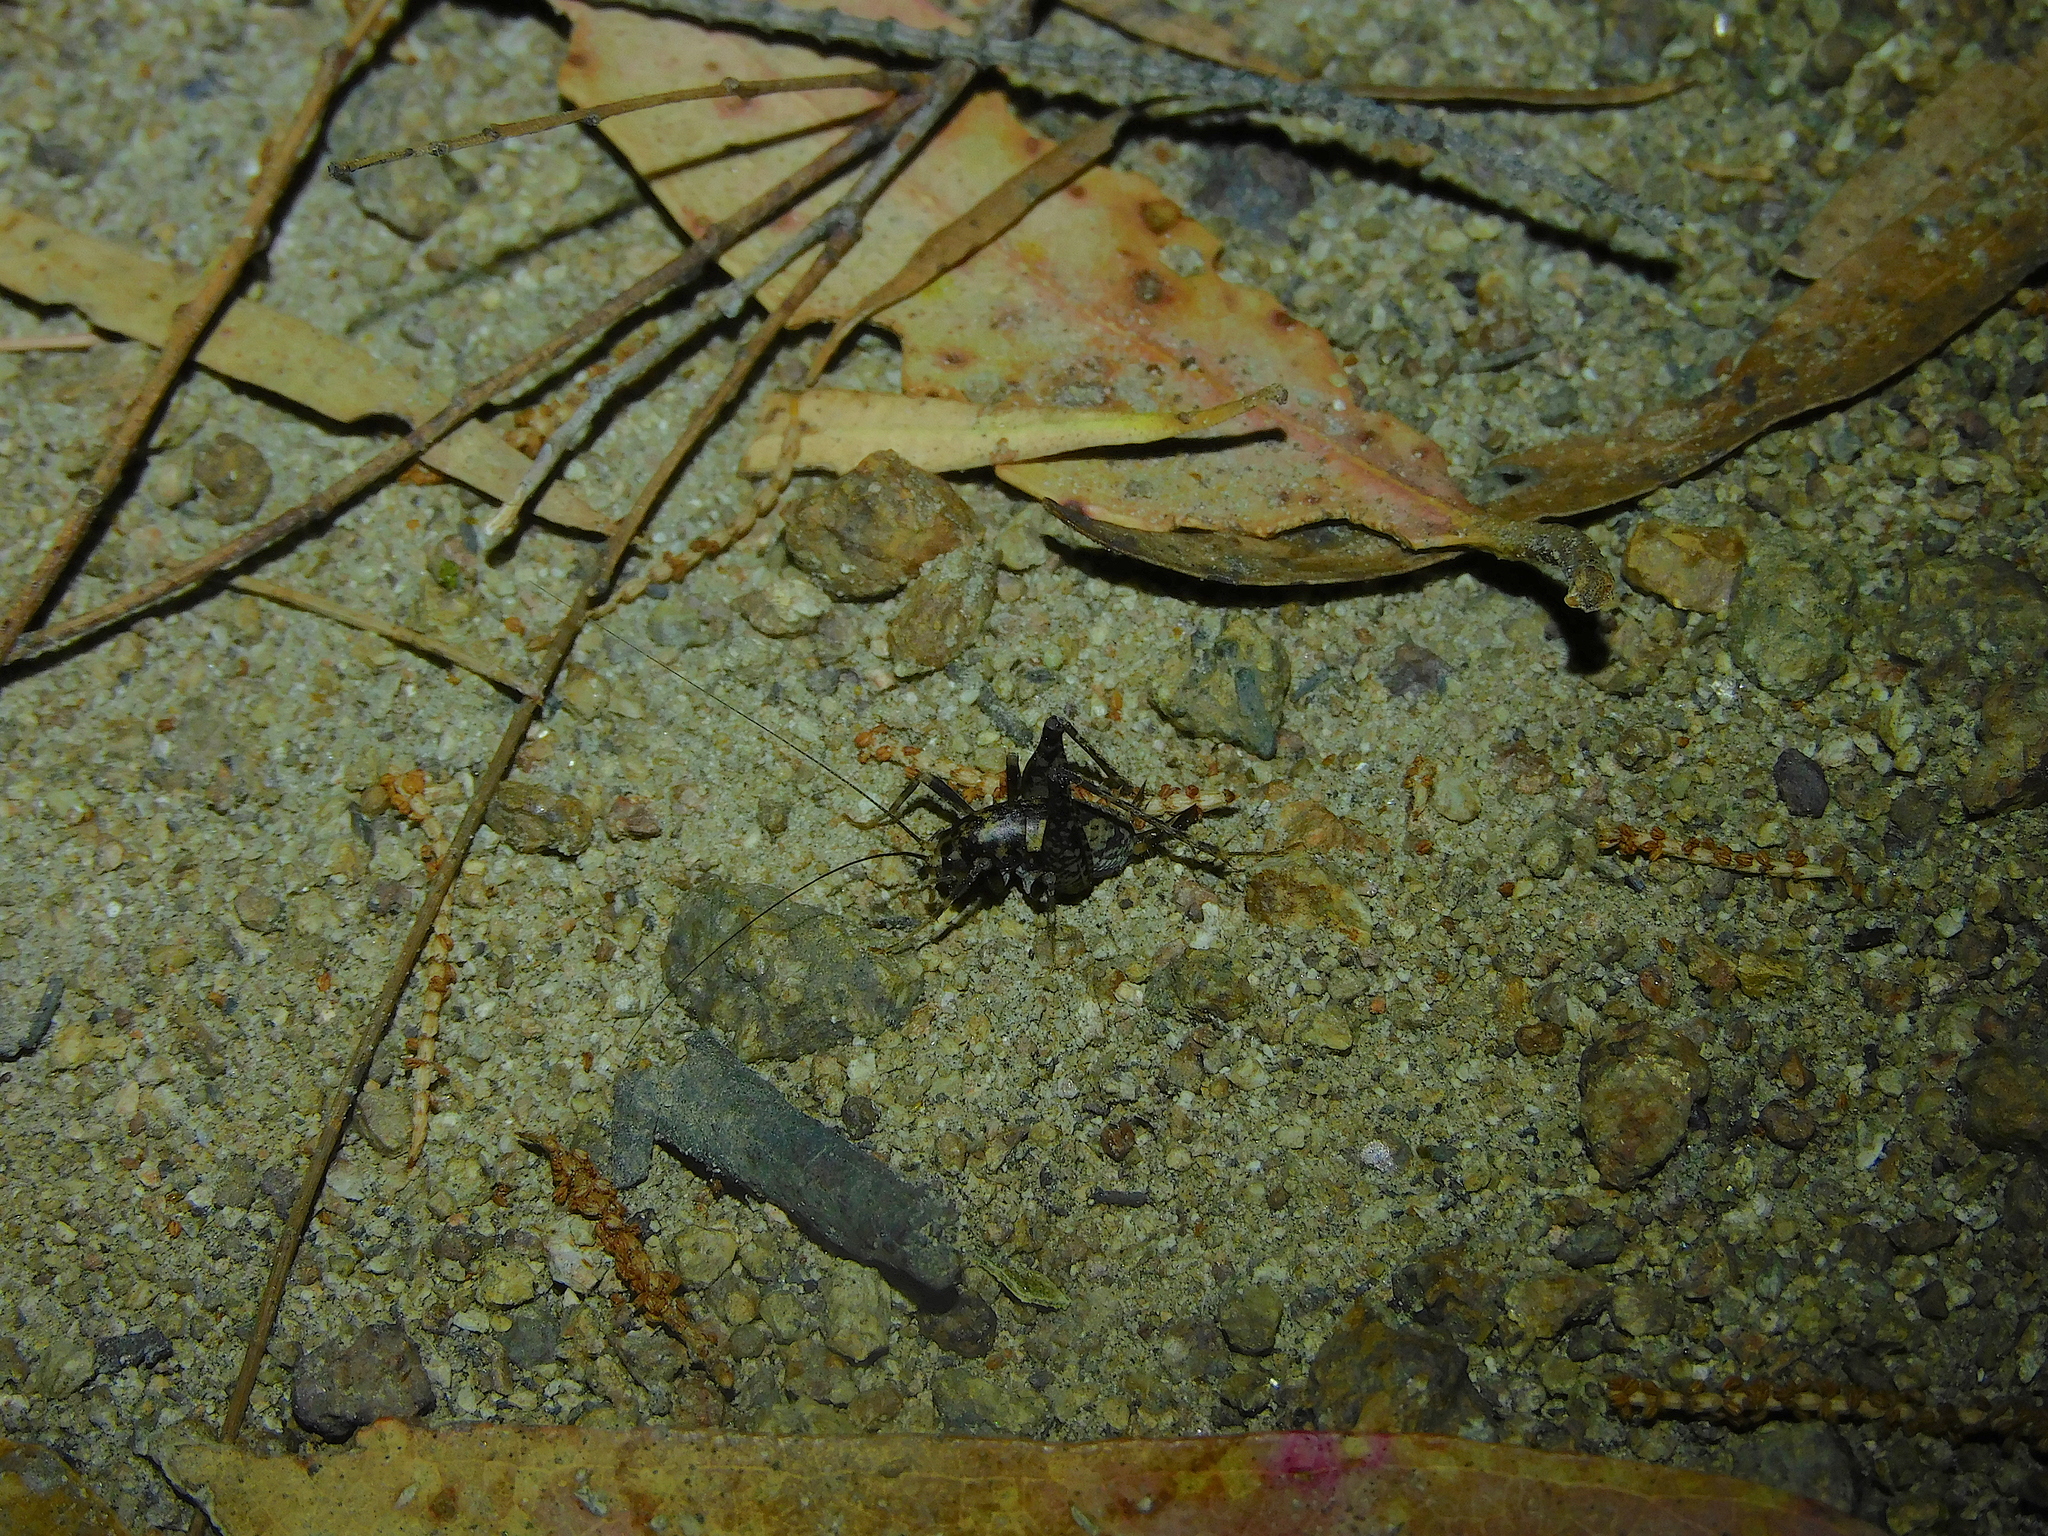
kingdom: Animalia
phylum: Arthropoda
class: Insecta
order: Orthoptera
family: Rhaphidophoridae
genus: Parvotettix
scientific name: Parvotettix domesticus
